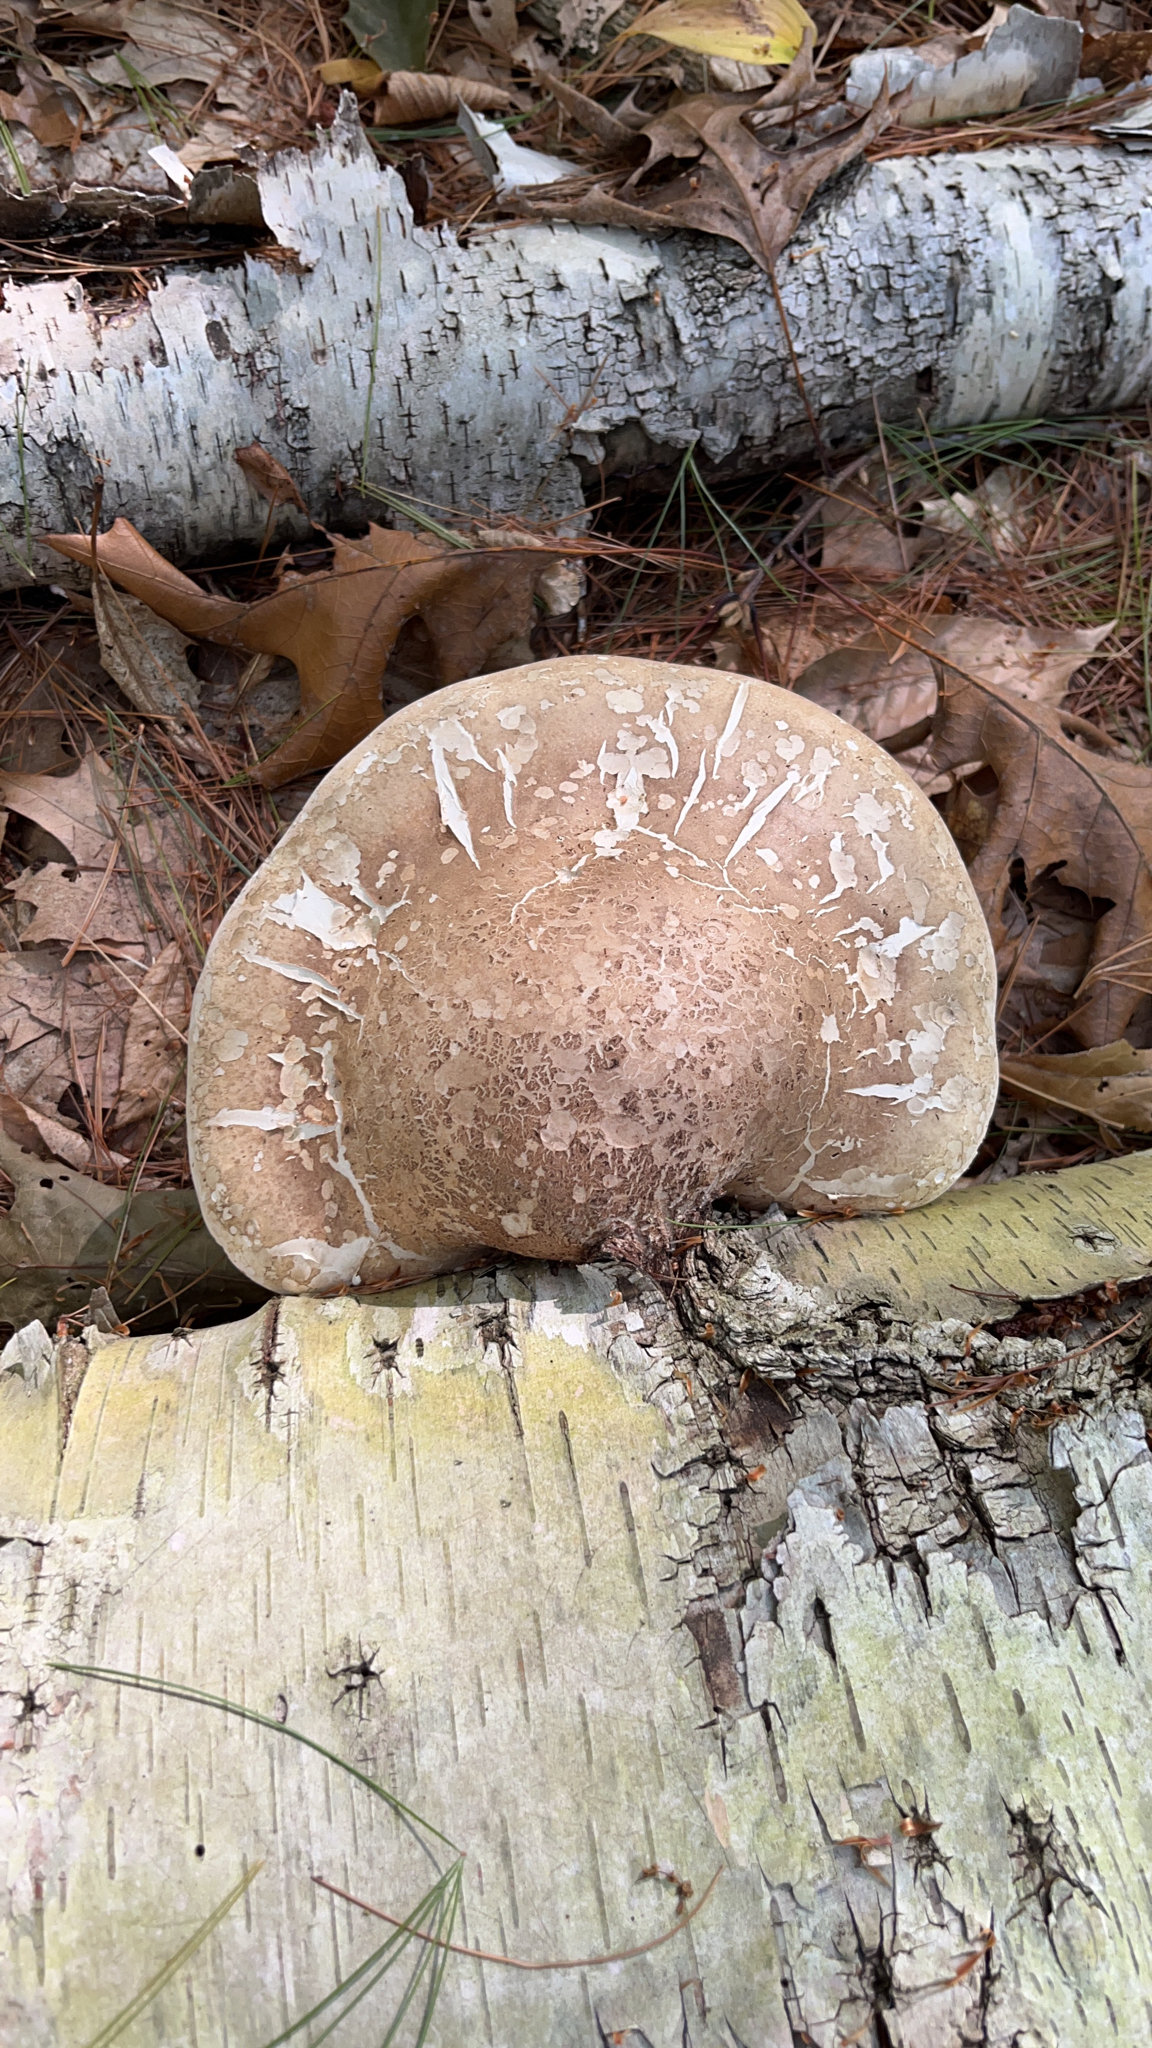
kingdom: Fungi
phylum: Basidiomycota
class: Agaricomycetes
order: Polyporales
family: Fomitopsidaceae
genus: Fomitopsis
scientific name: Fomitopsis betulina
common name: Birch polypore
